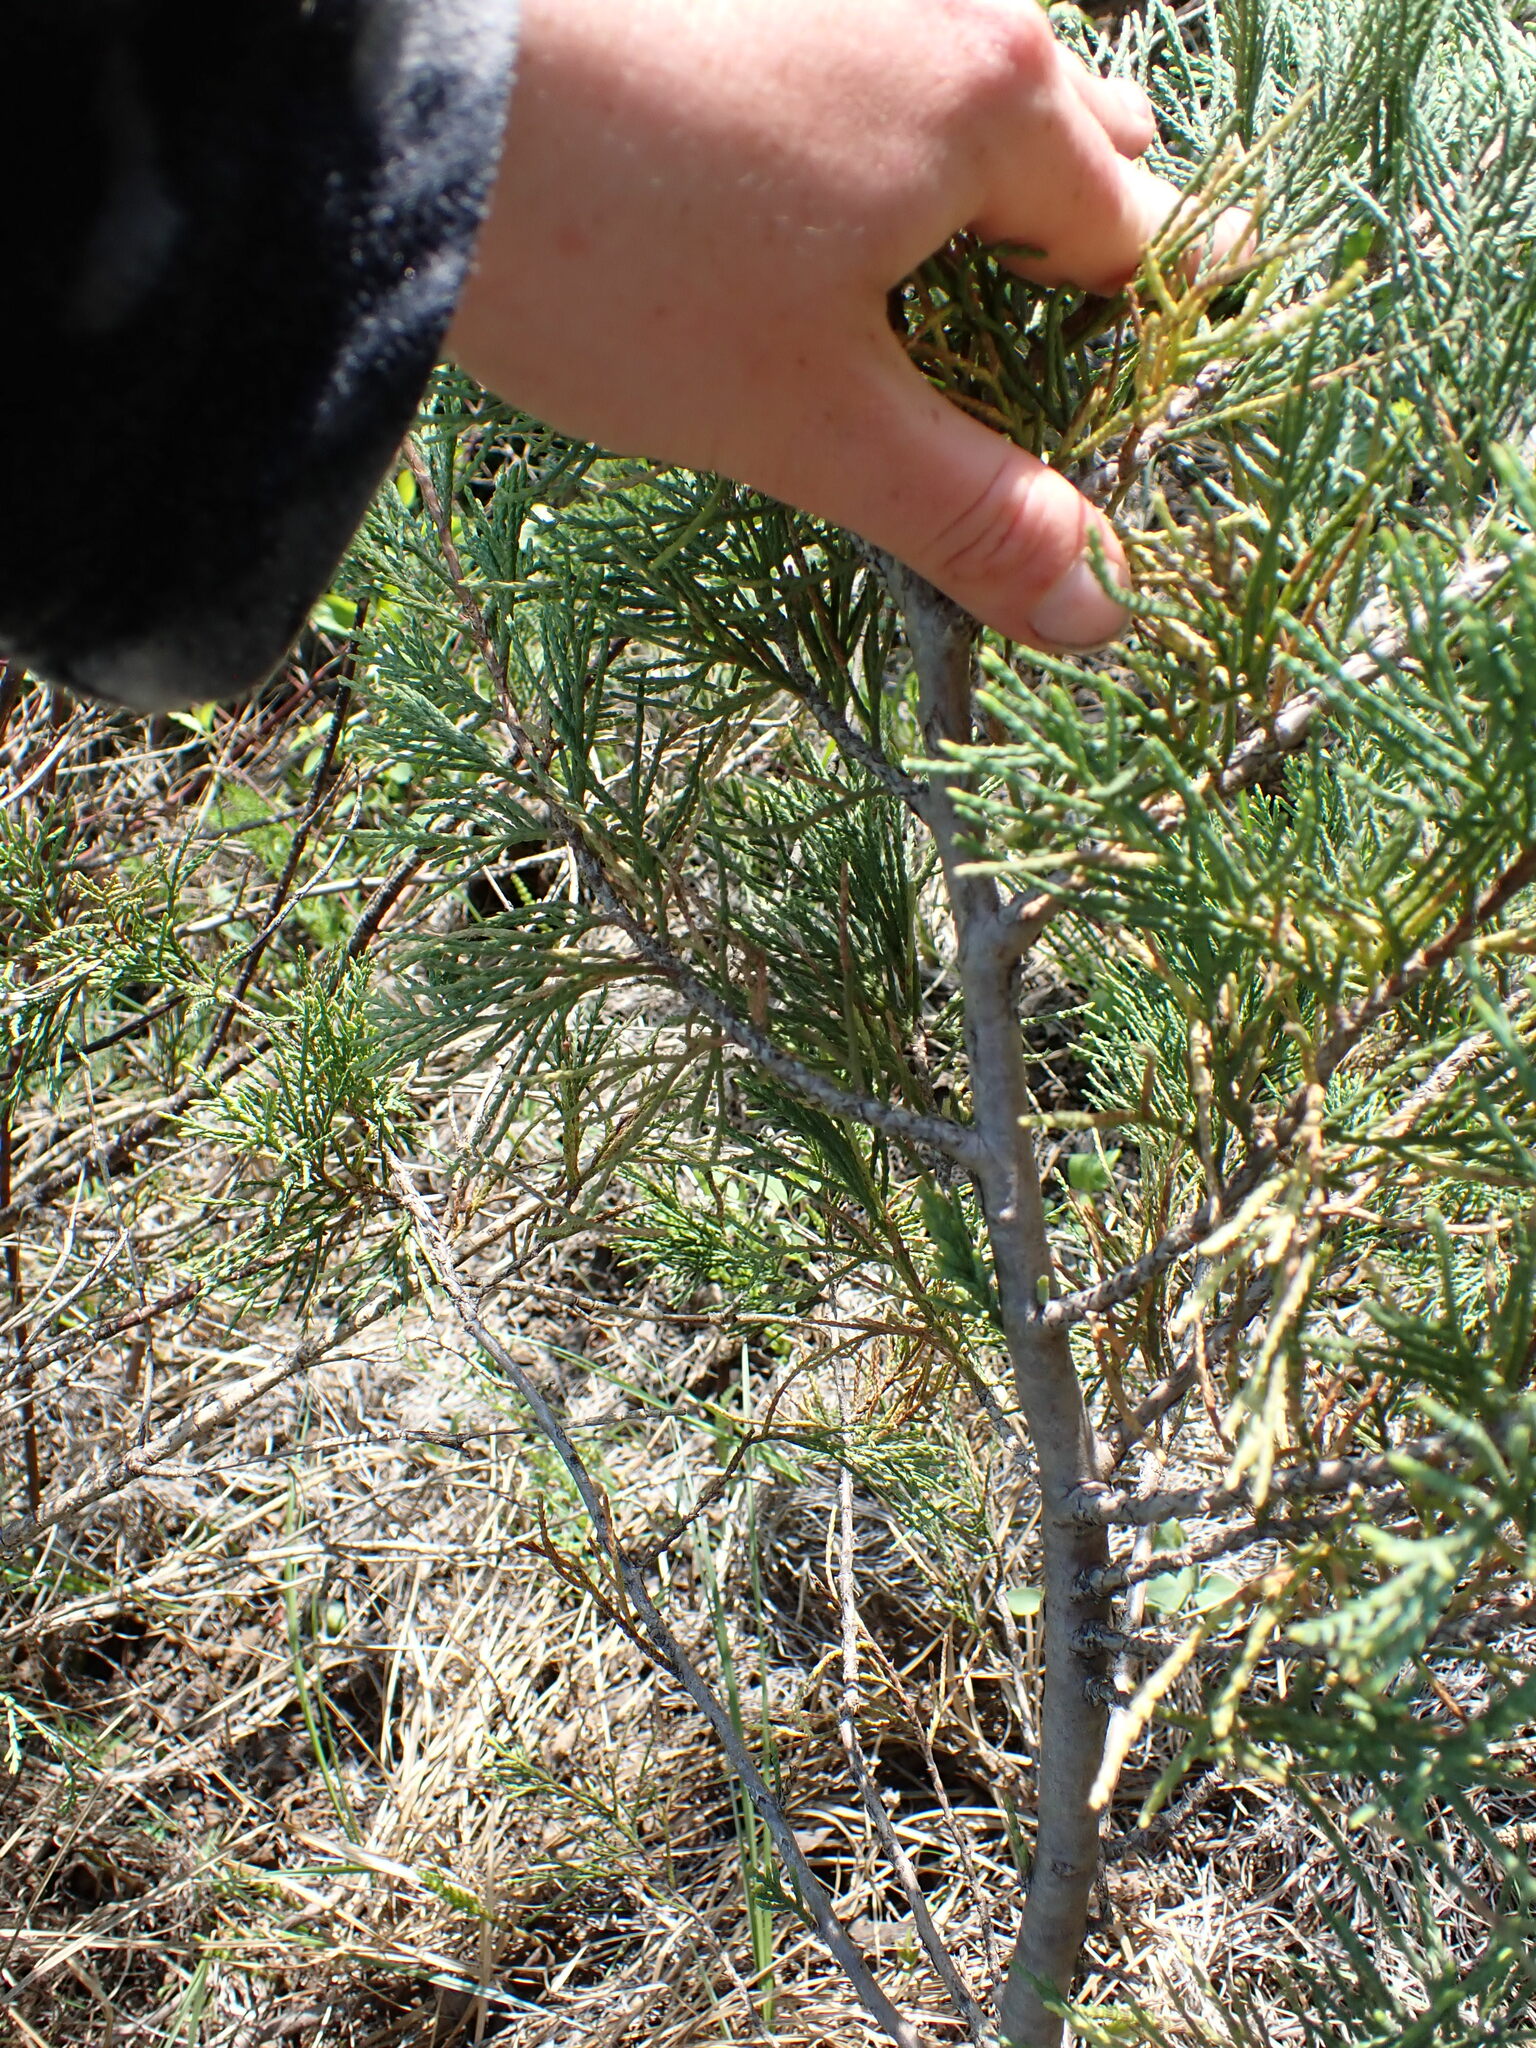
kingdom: Plantae
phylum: Tracheophyta
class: Pinopsida
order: Pinales
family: Cupressaceae
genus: Juniperus
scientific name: Juniperus scopulorum
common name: Rocky mountain juniper
